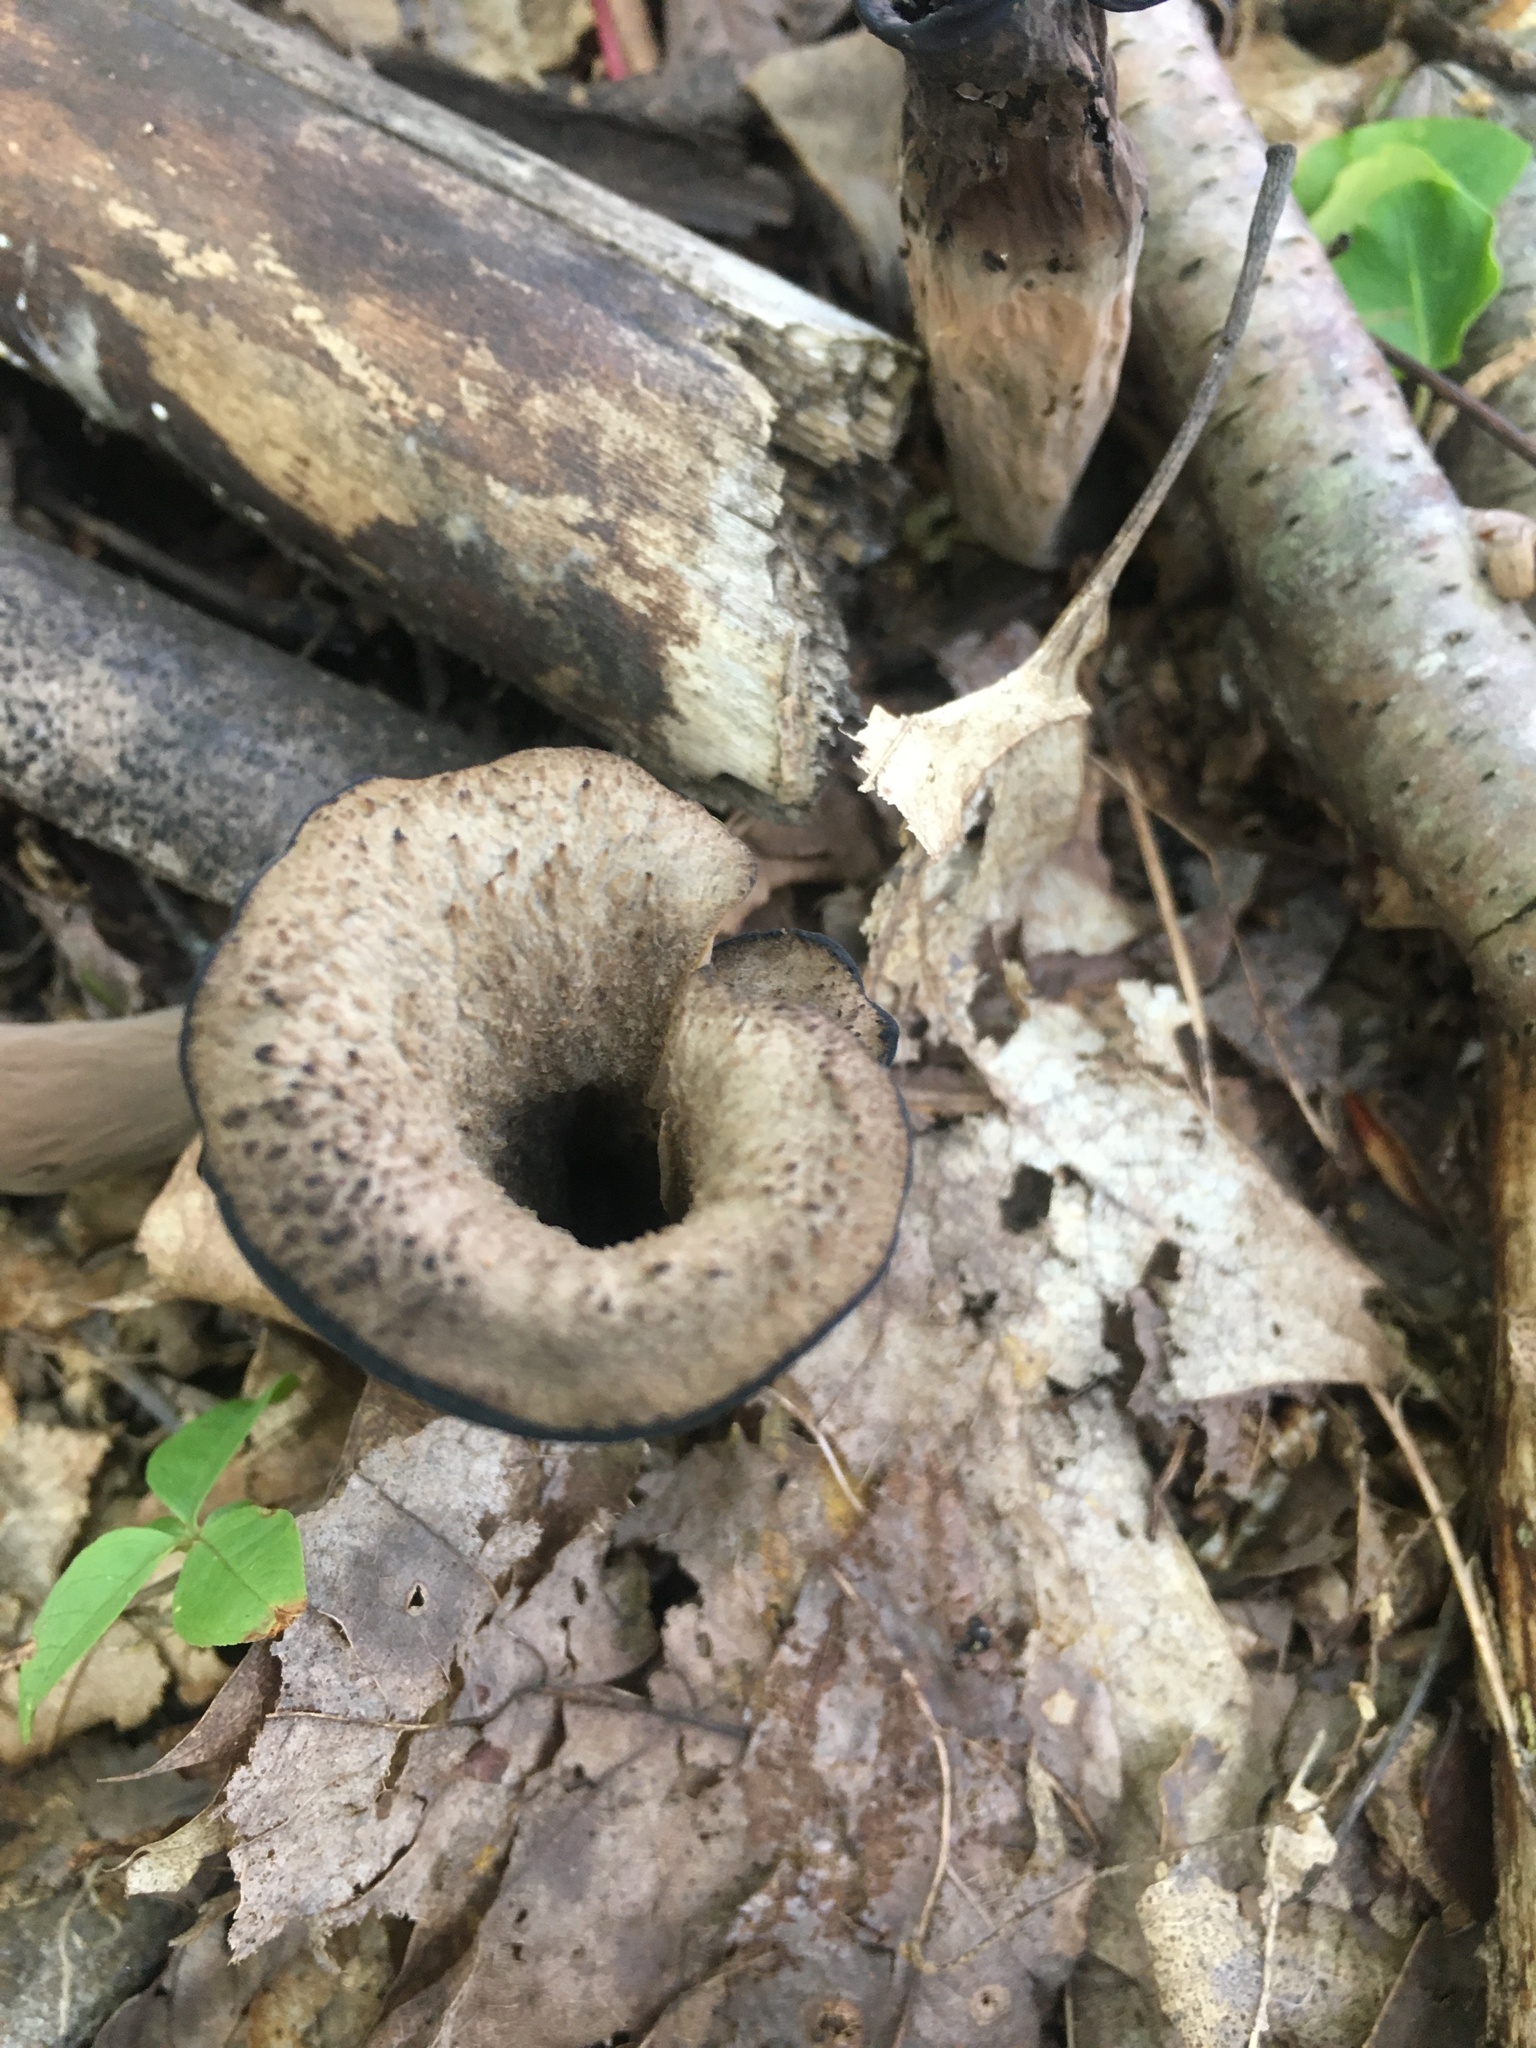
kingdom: Fungi
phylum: Basidiomycota
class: Agaricomycetes
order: Cantharellales
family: Hydnaceae
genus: Craterellus
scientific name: Craterellus cornucopioides
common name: Horn of plenty
